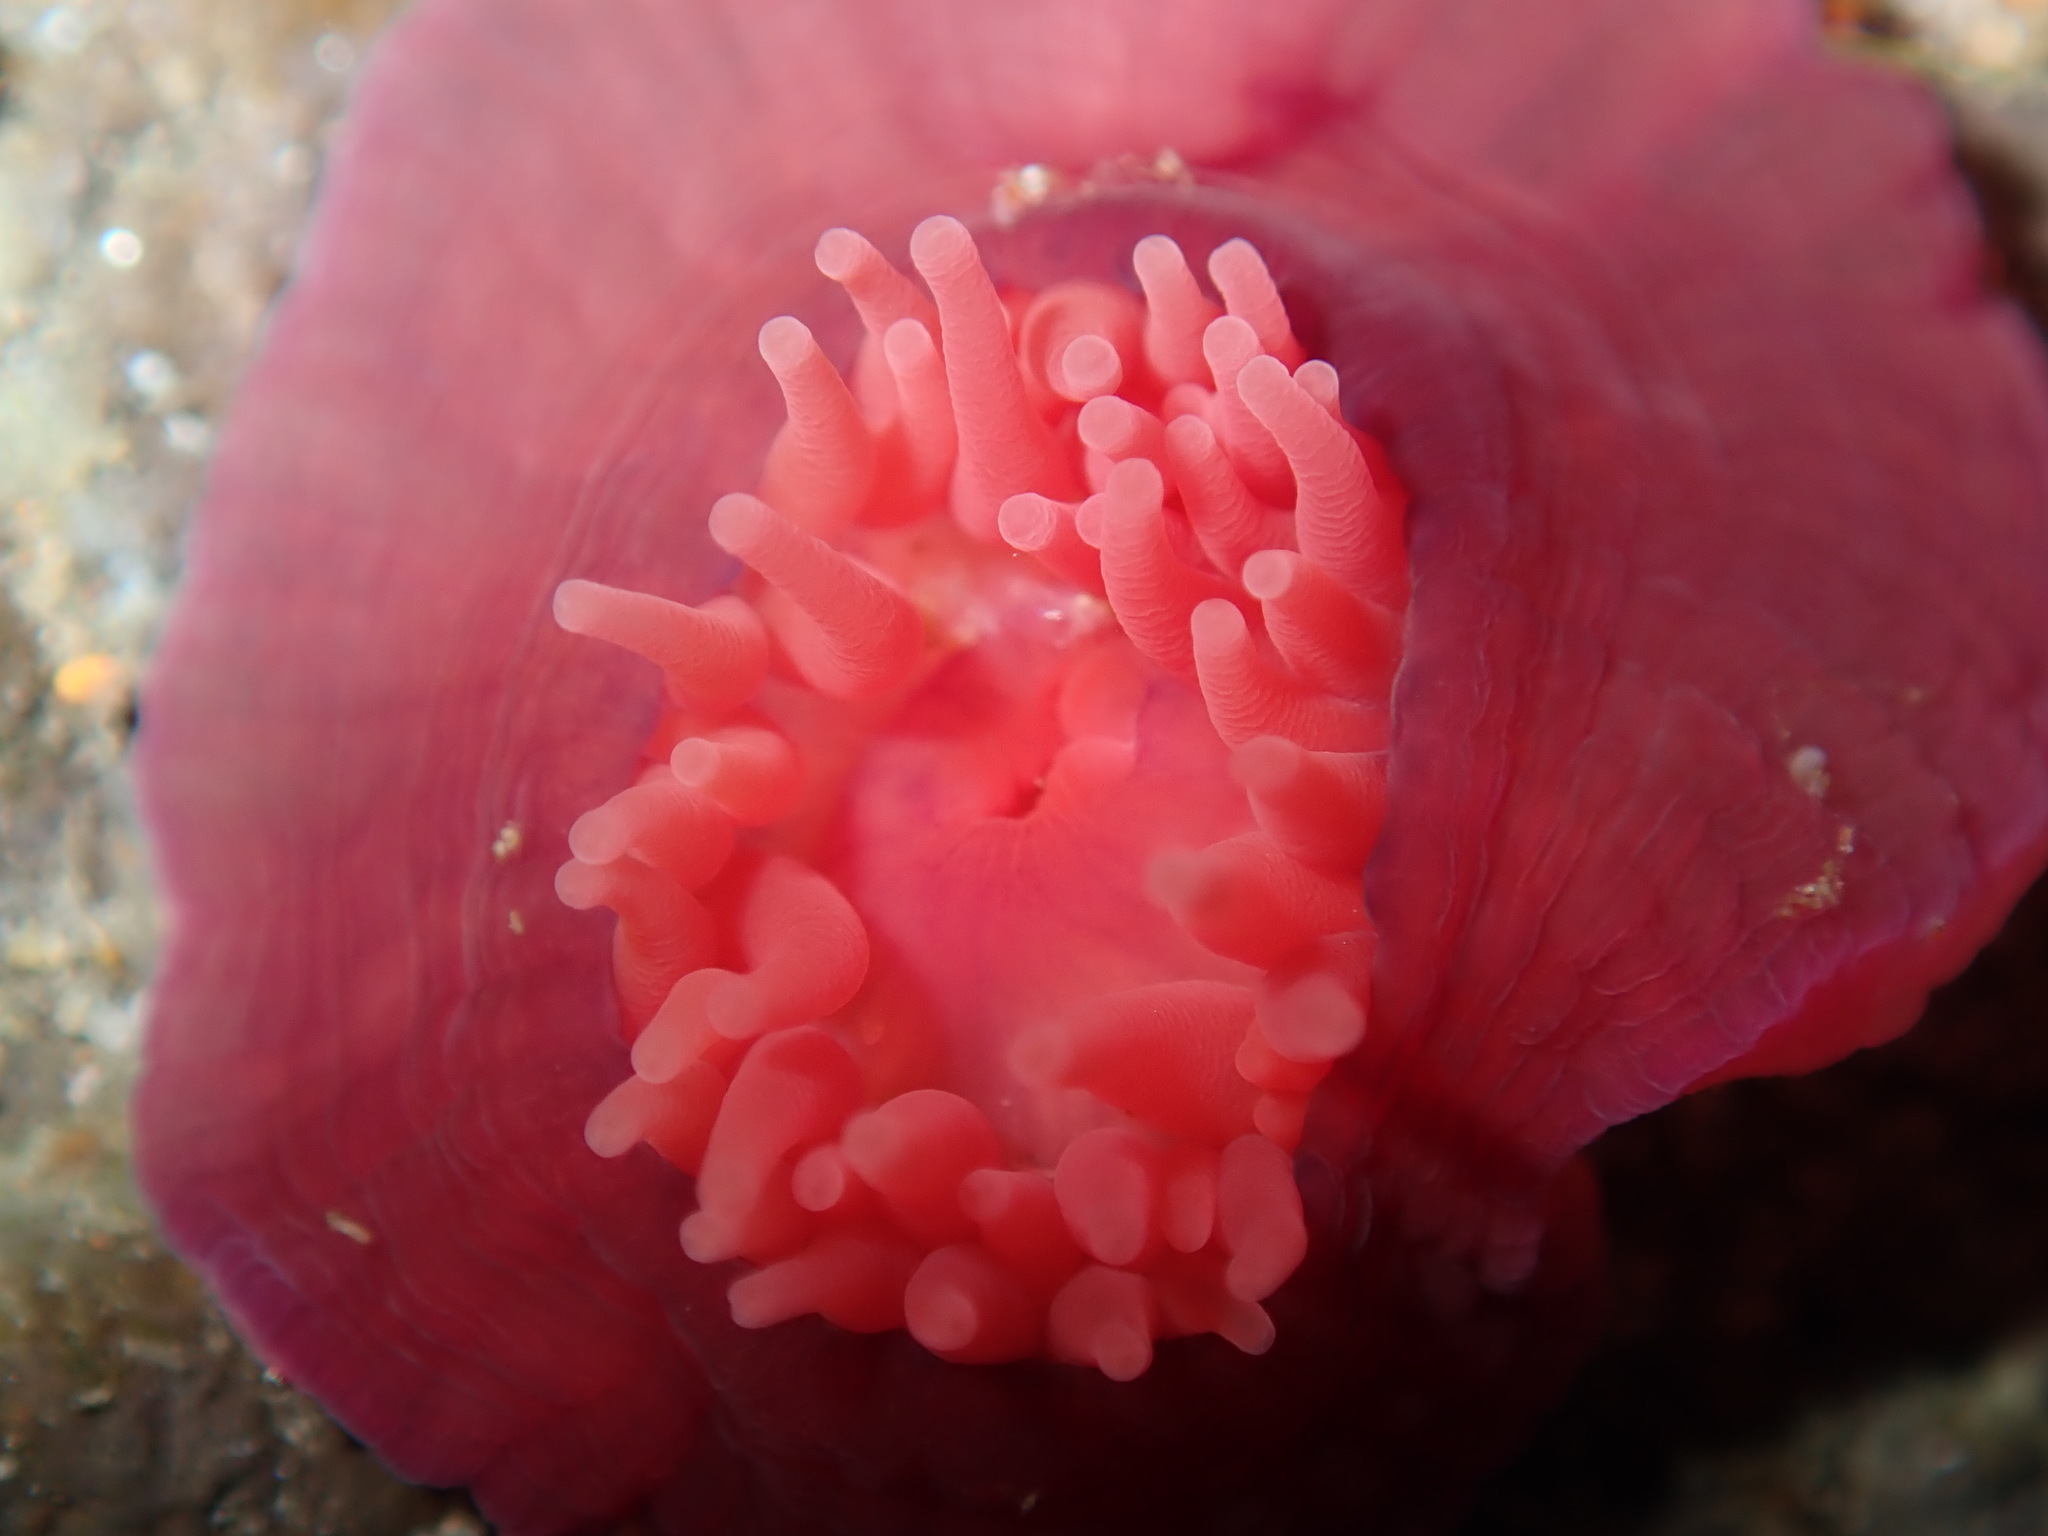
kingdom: Animalia
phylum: Cnidaria
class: Anthozoa
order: Actiniaria
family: Actiniidae
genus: Actinia
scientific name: Actinia tenebrosa
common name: Waratah anemone
